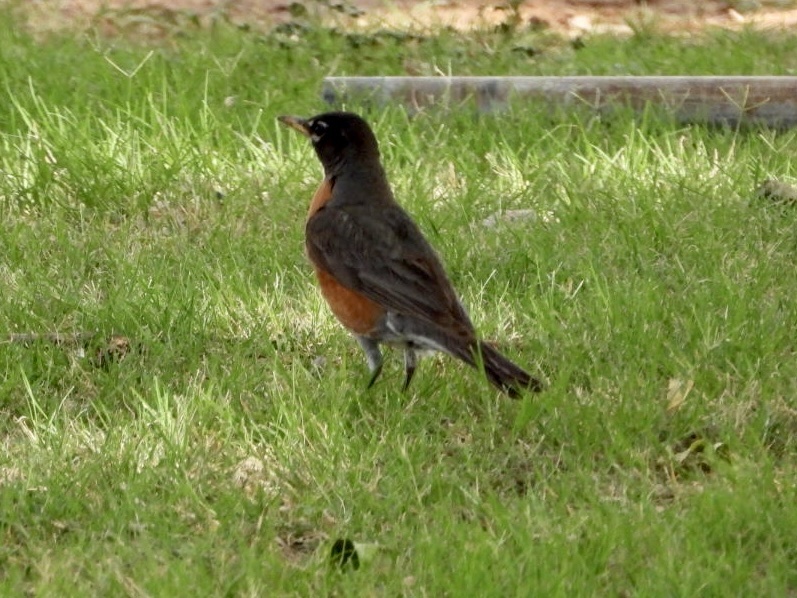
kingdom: Animalia
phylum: Chordata
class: Aves
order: Passeriformes
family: Turdidae
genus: Turdus
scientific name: Turdus migratorius
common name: American robin
